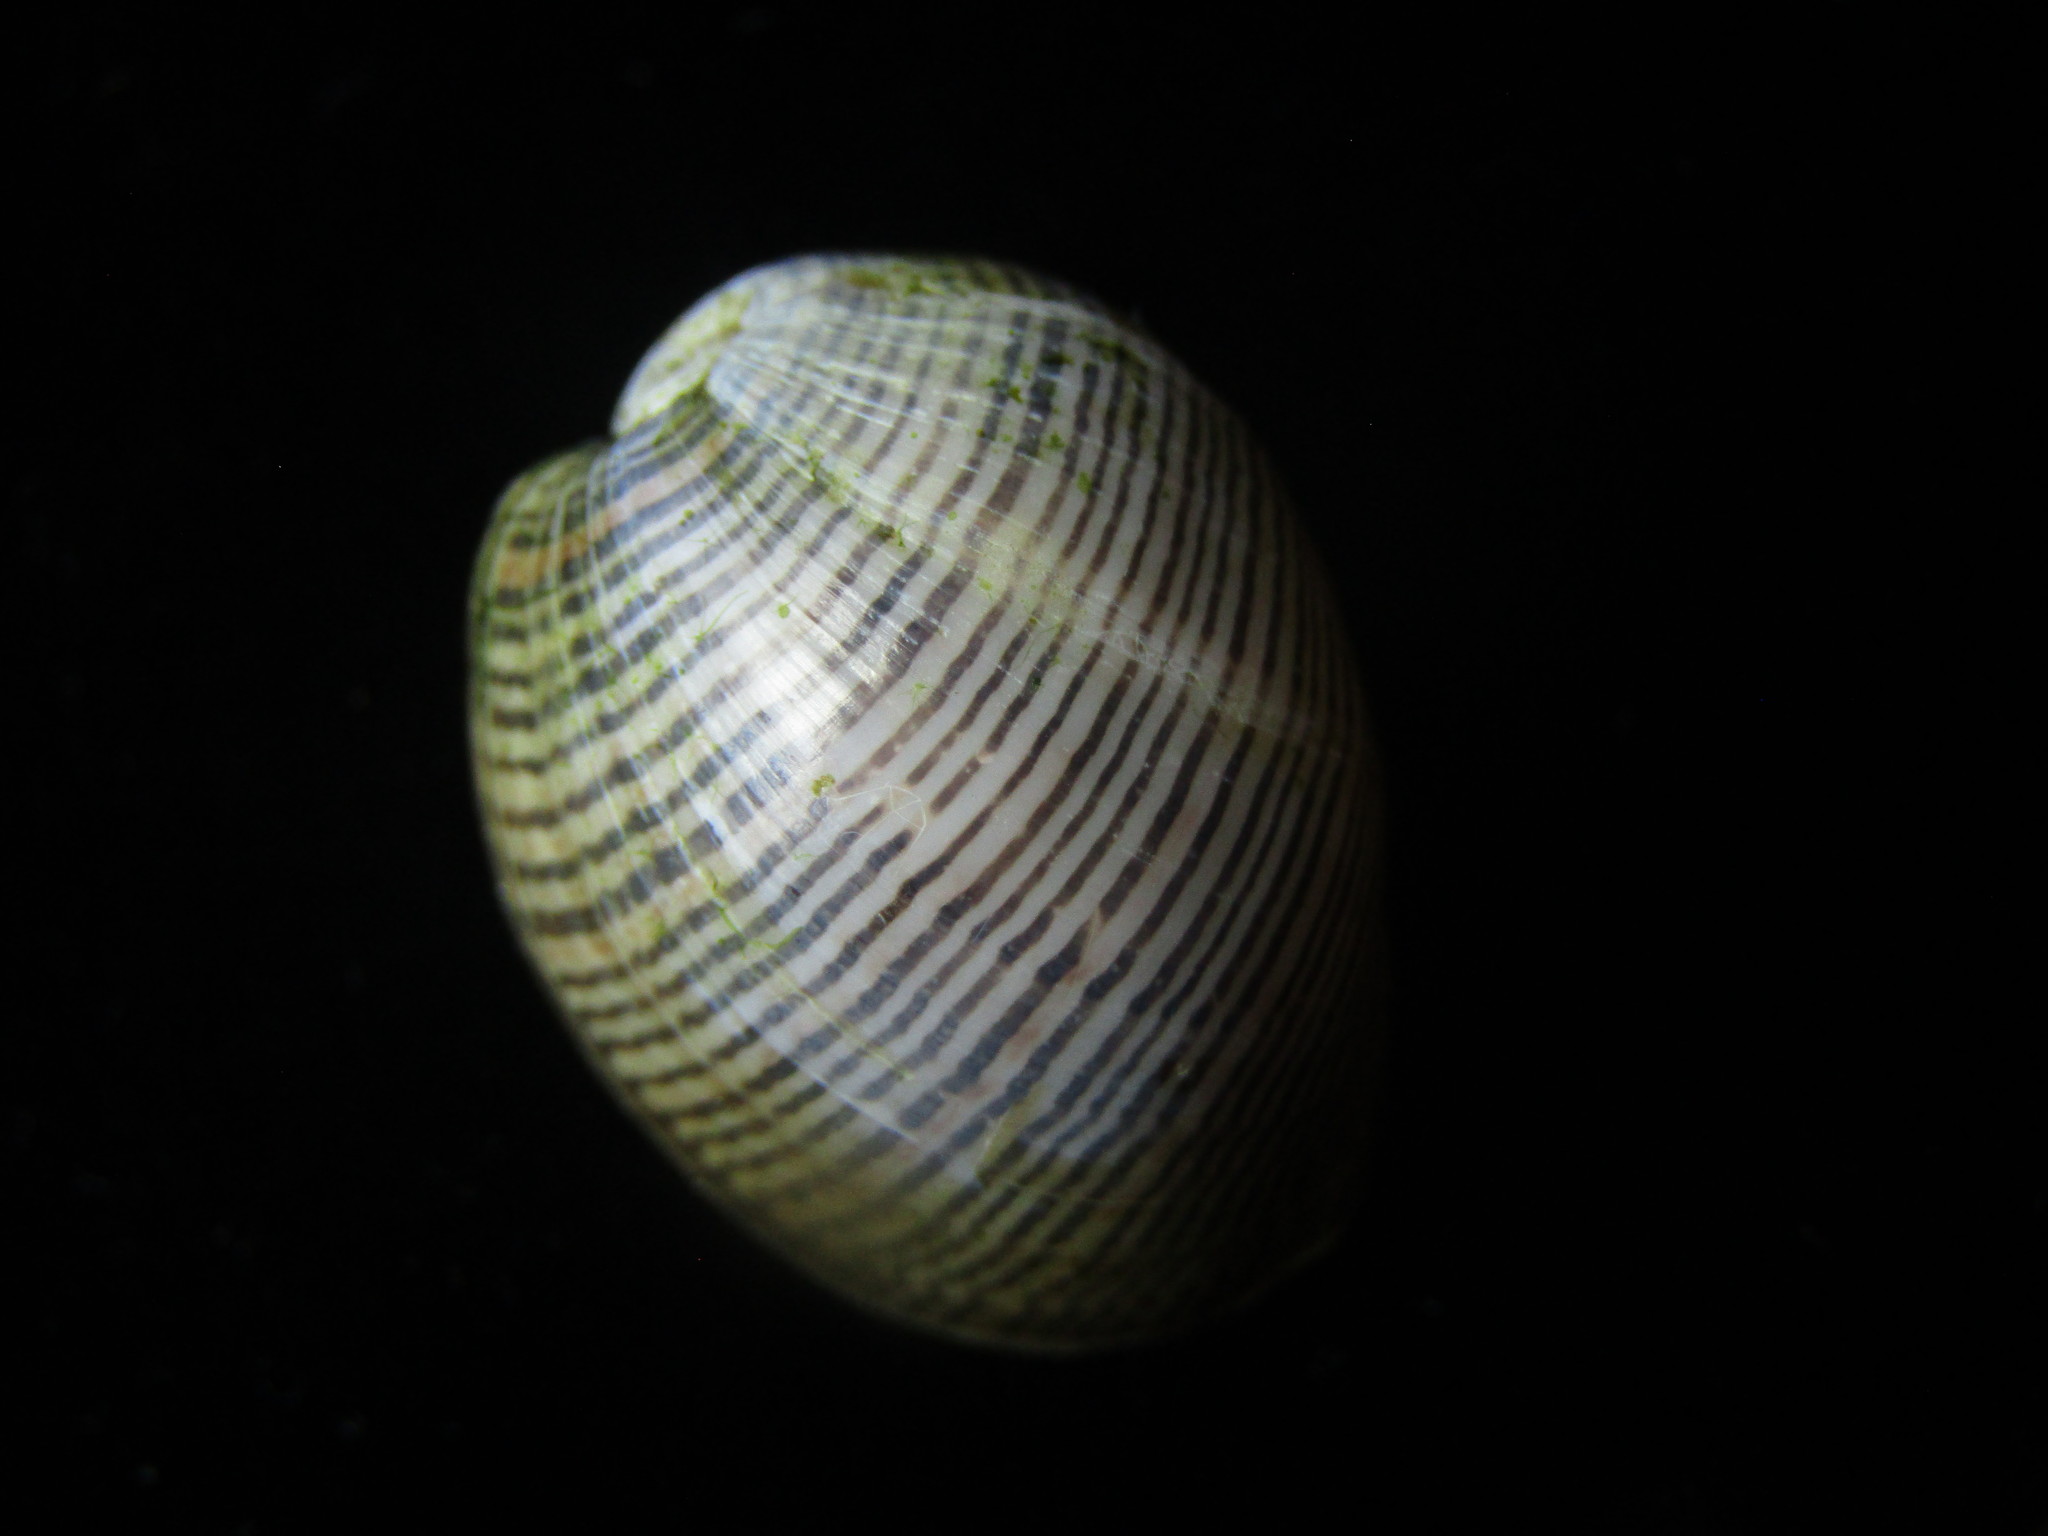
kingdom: Animalia
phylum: Mollusca
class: Gastropoda
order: Cephalaspidea
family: Aplustridae
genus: Hydatina
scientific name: Hydatina physis
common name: Brown-line paperbubble
